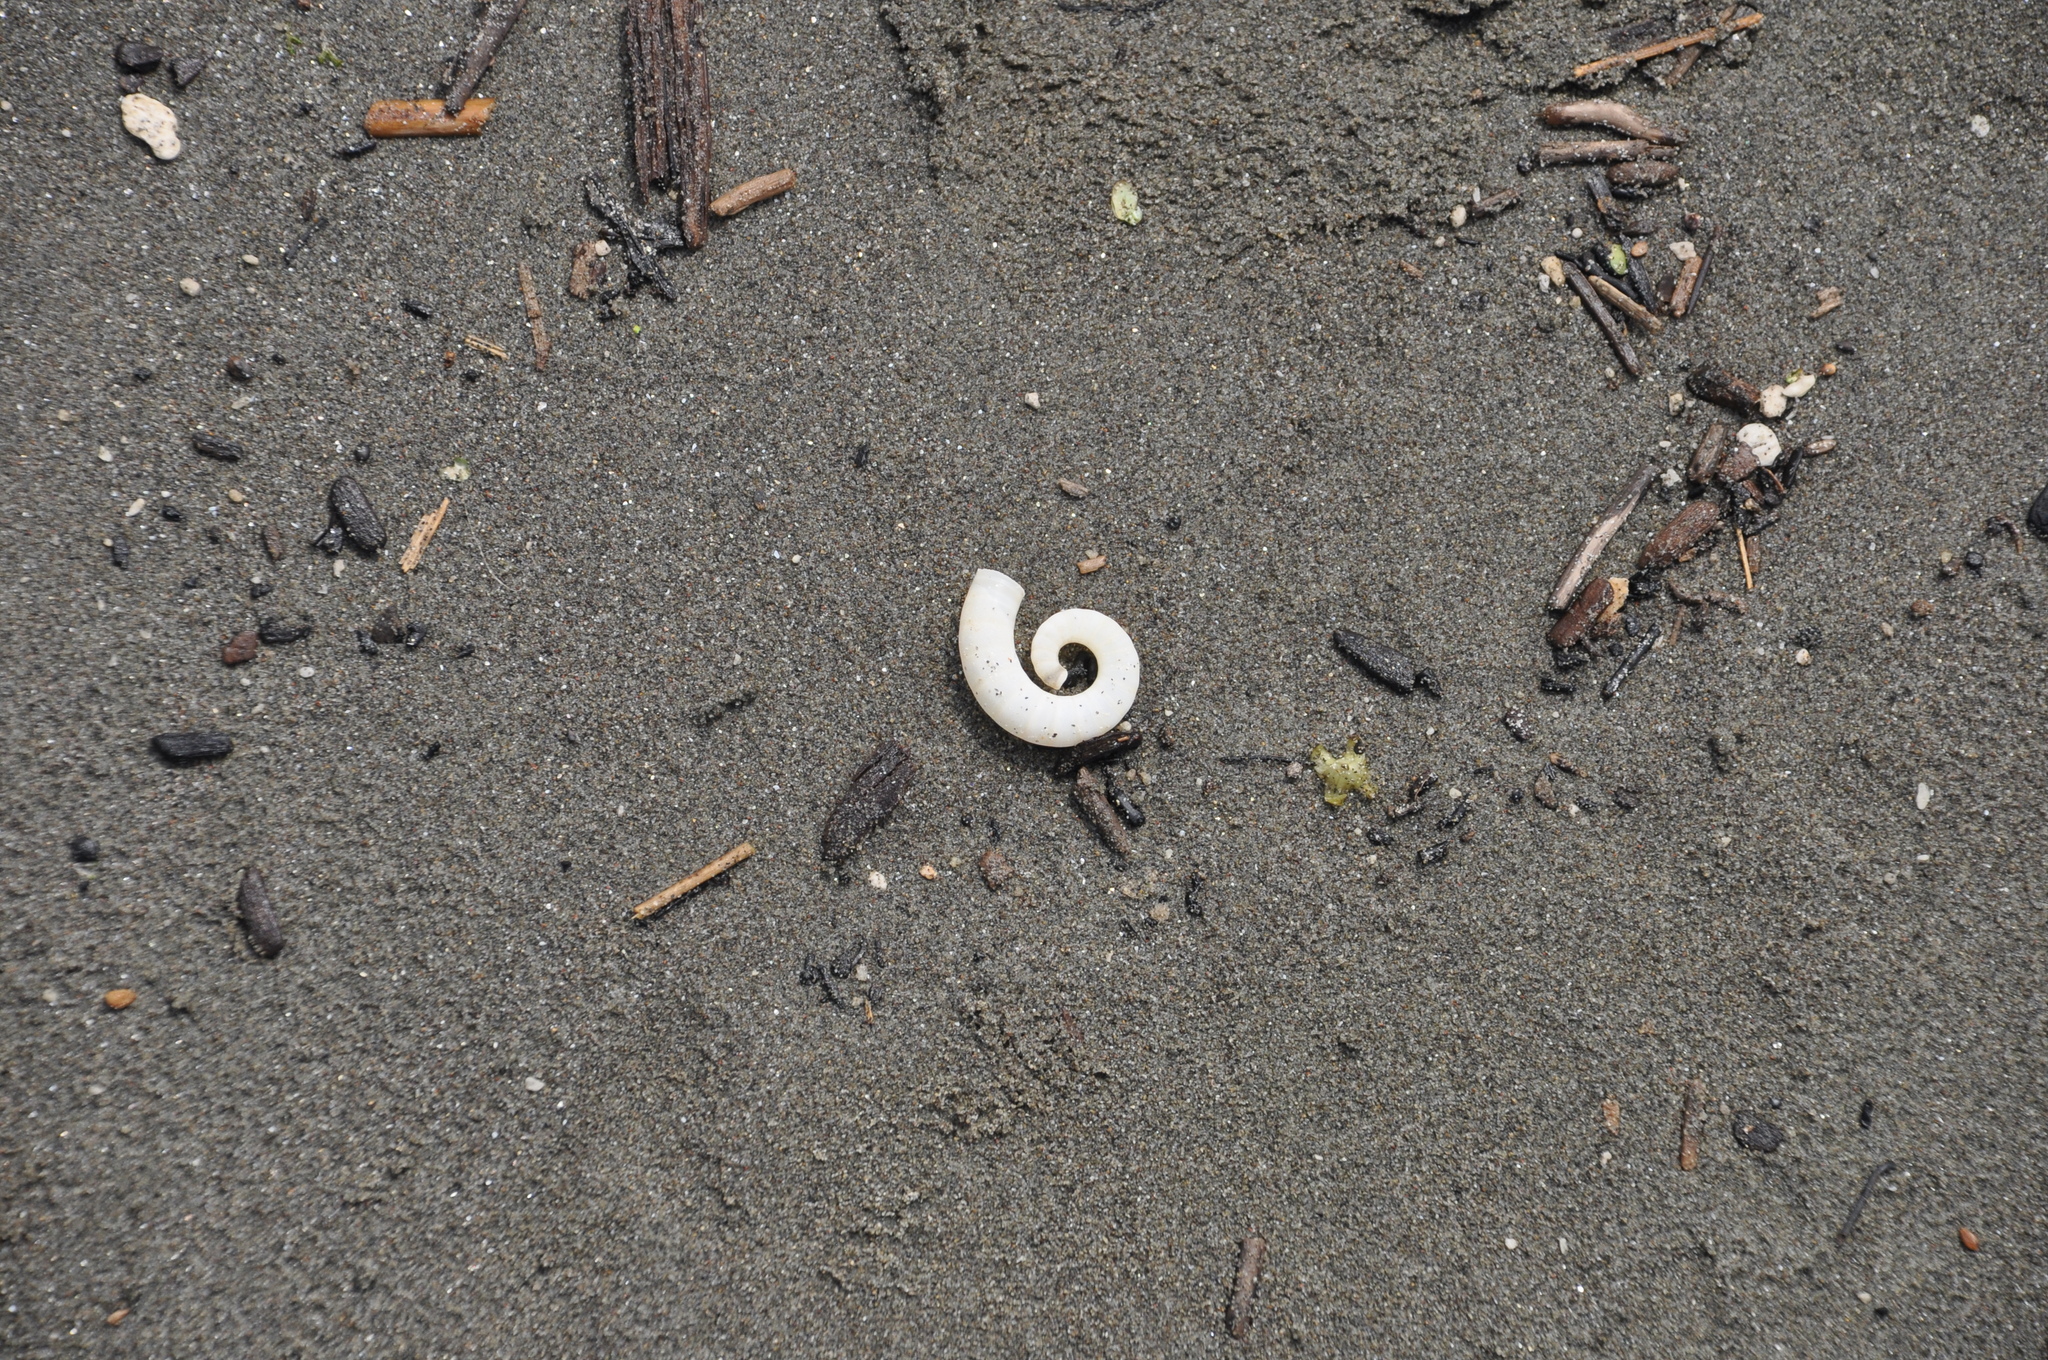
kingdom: Animalia
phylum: Mollusca
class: Cephalopoda
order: Spirulida
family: Spirulidae
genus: Spirula
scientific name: Spirula spirula
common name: Ram's horn squid
